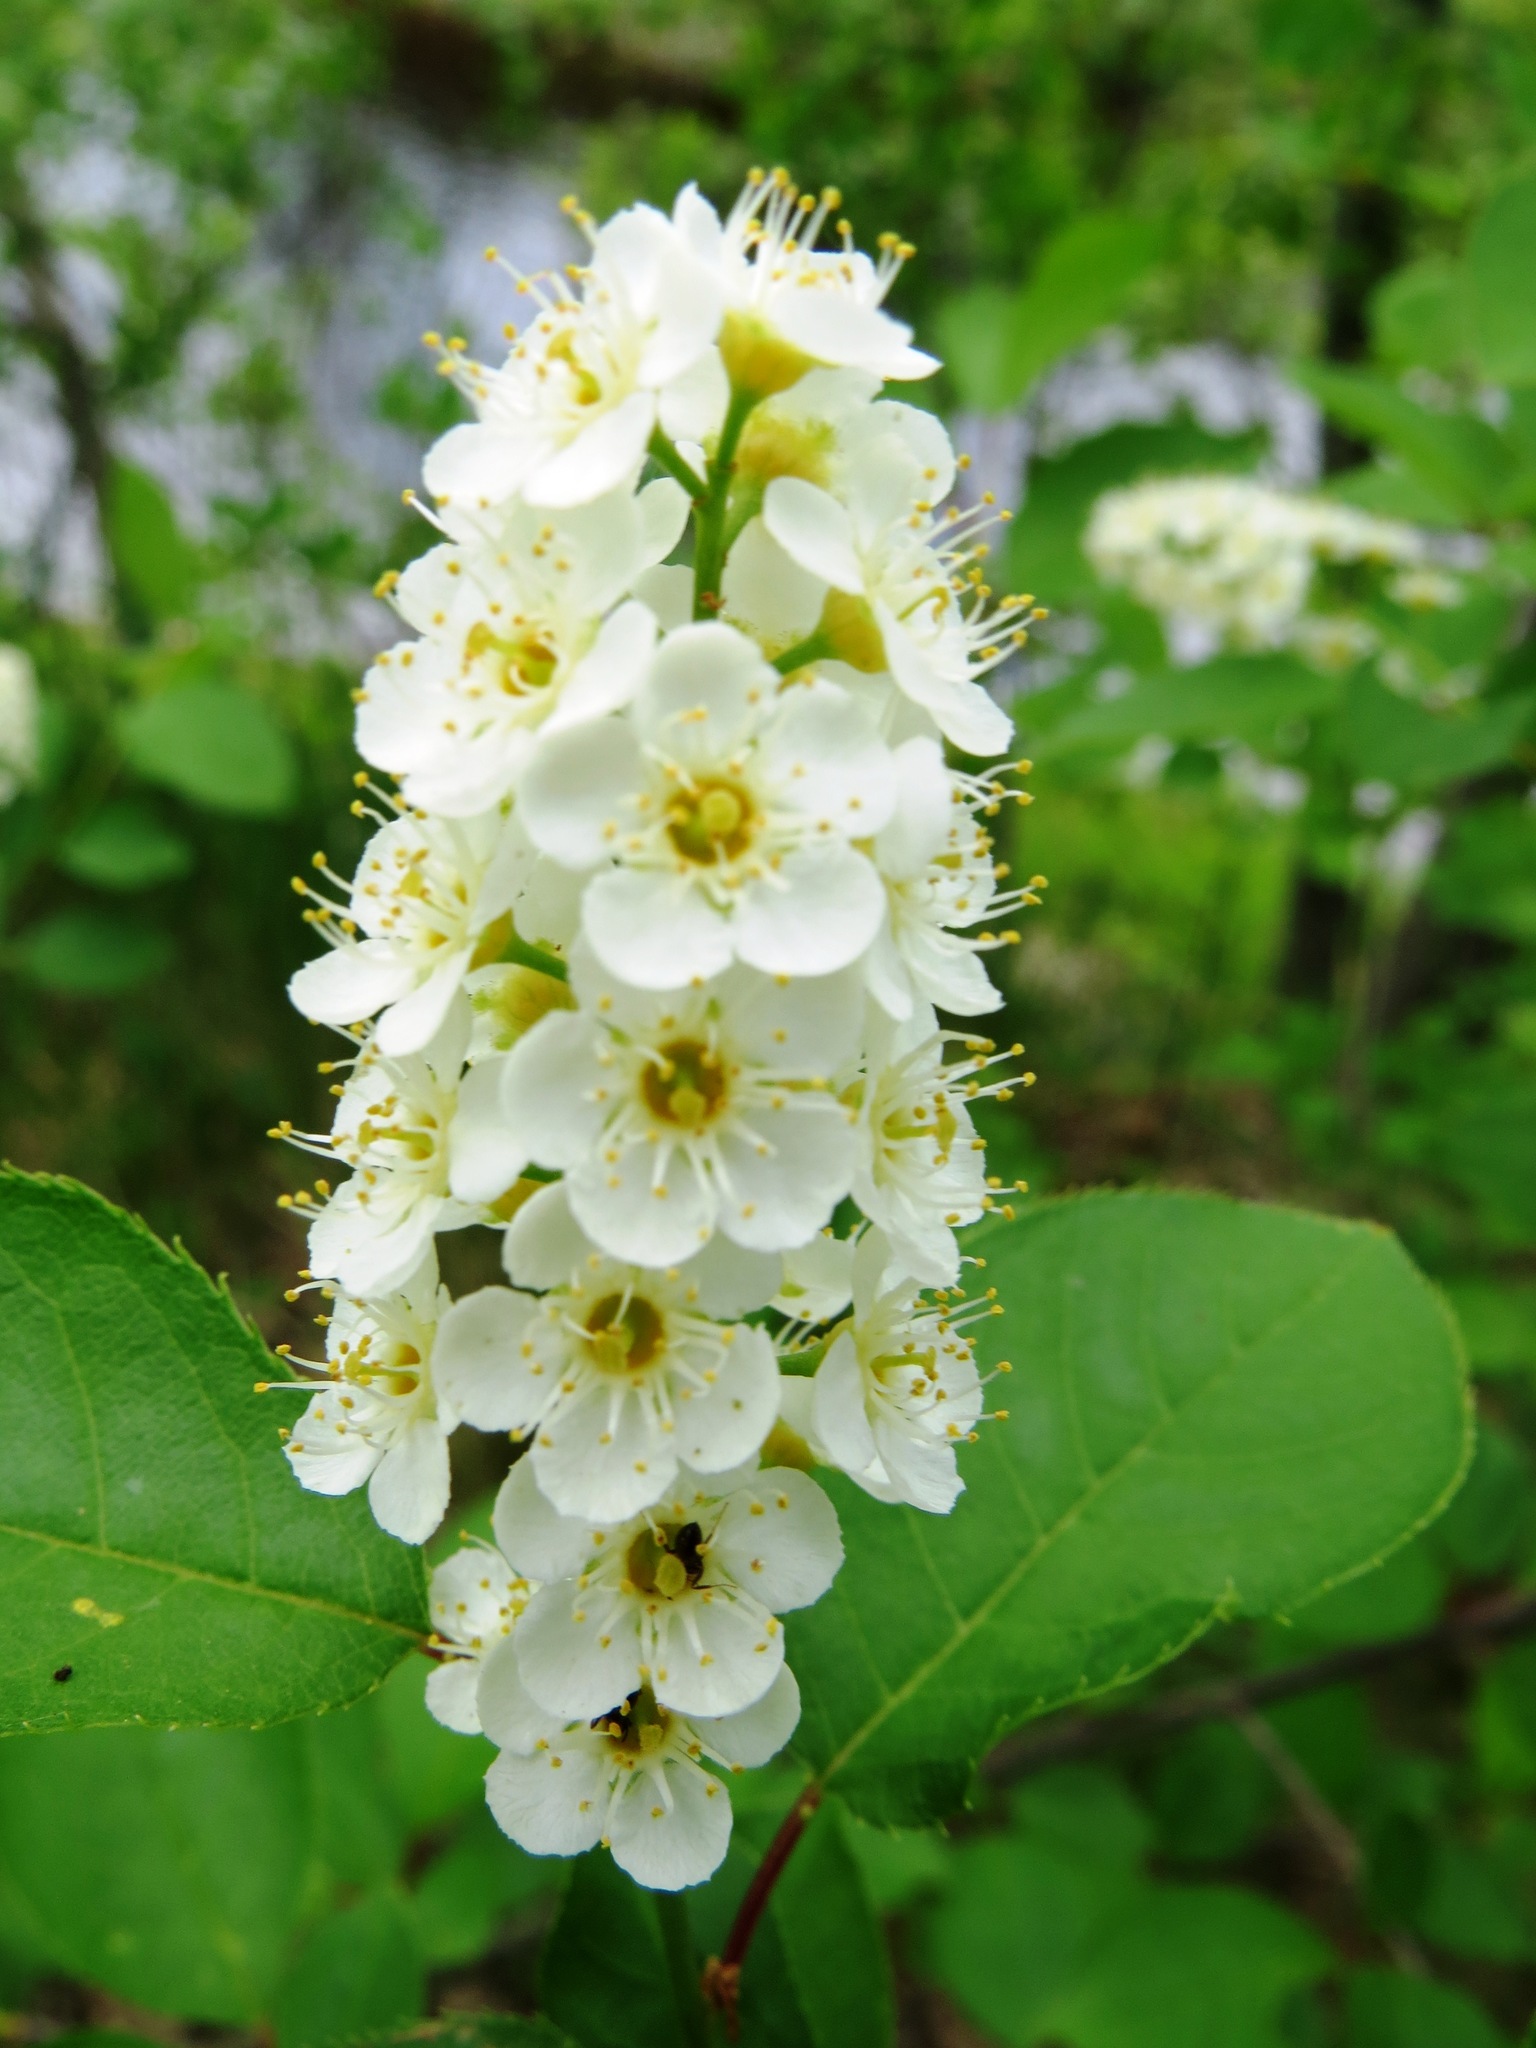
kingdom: Plantae
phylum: Tracheophyta
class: Magnoliopsida
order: Rosales
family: Rosaceae
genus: Prunus
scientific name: Prunus virginiana
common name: Chokecherry
